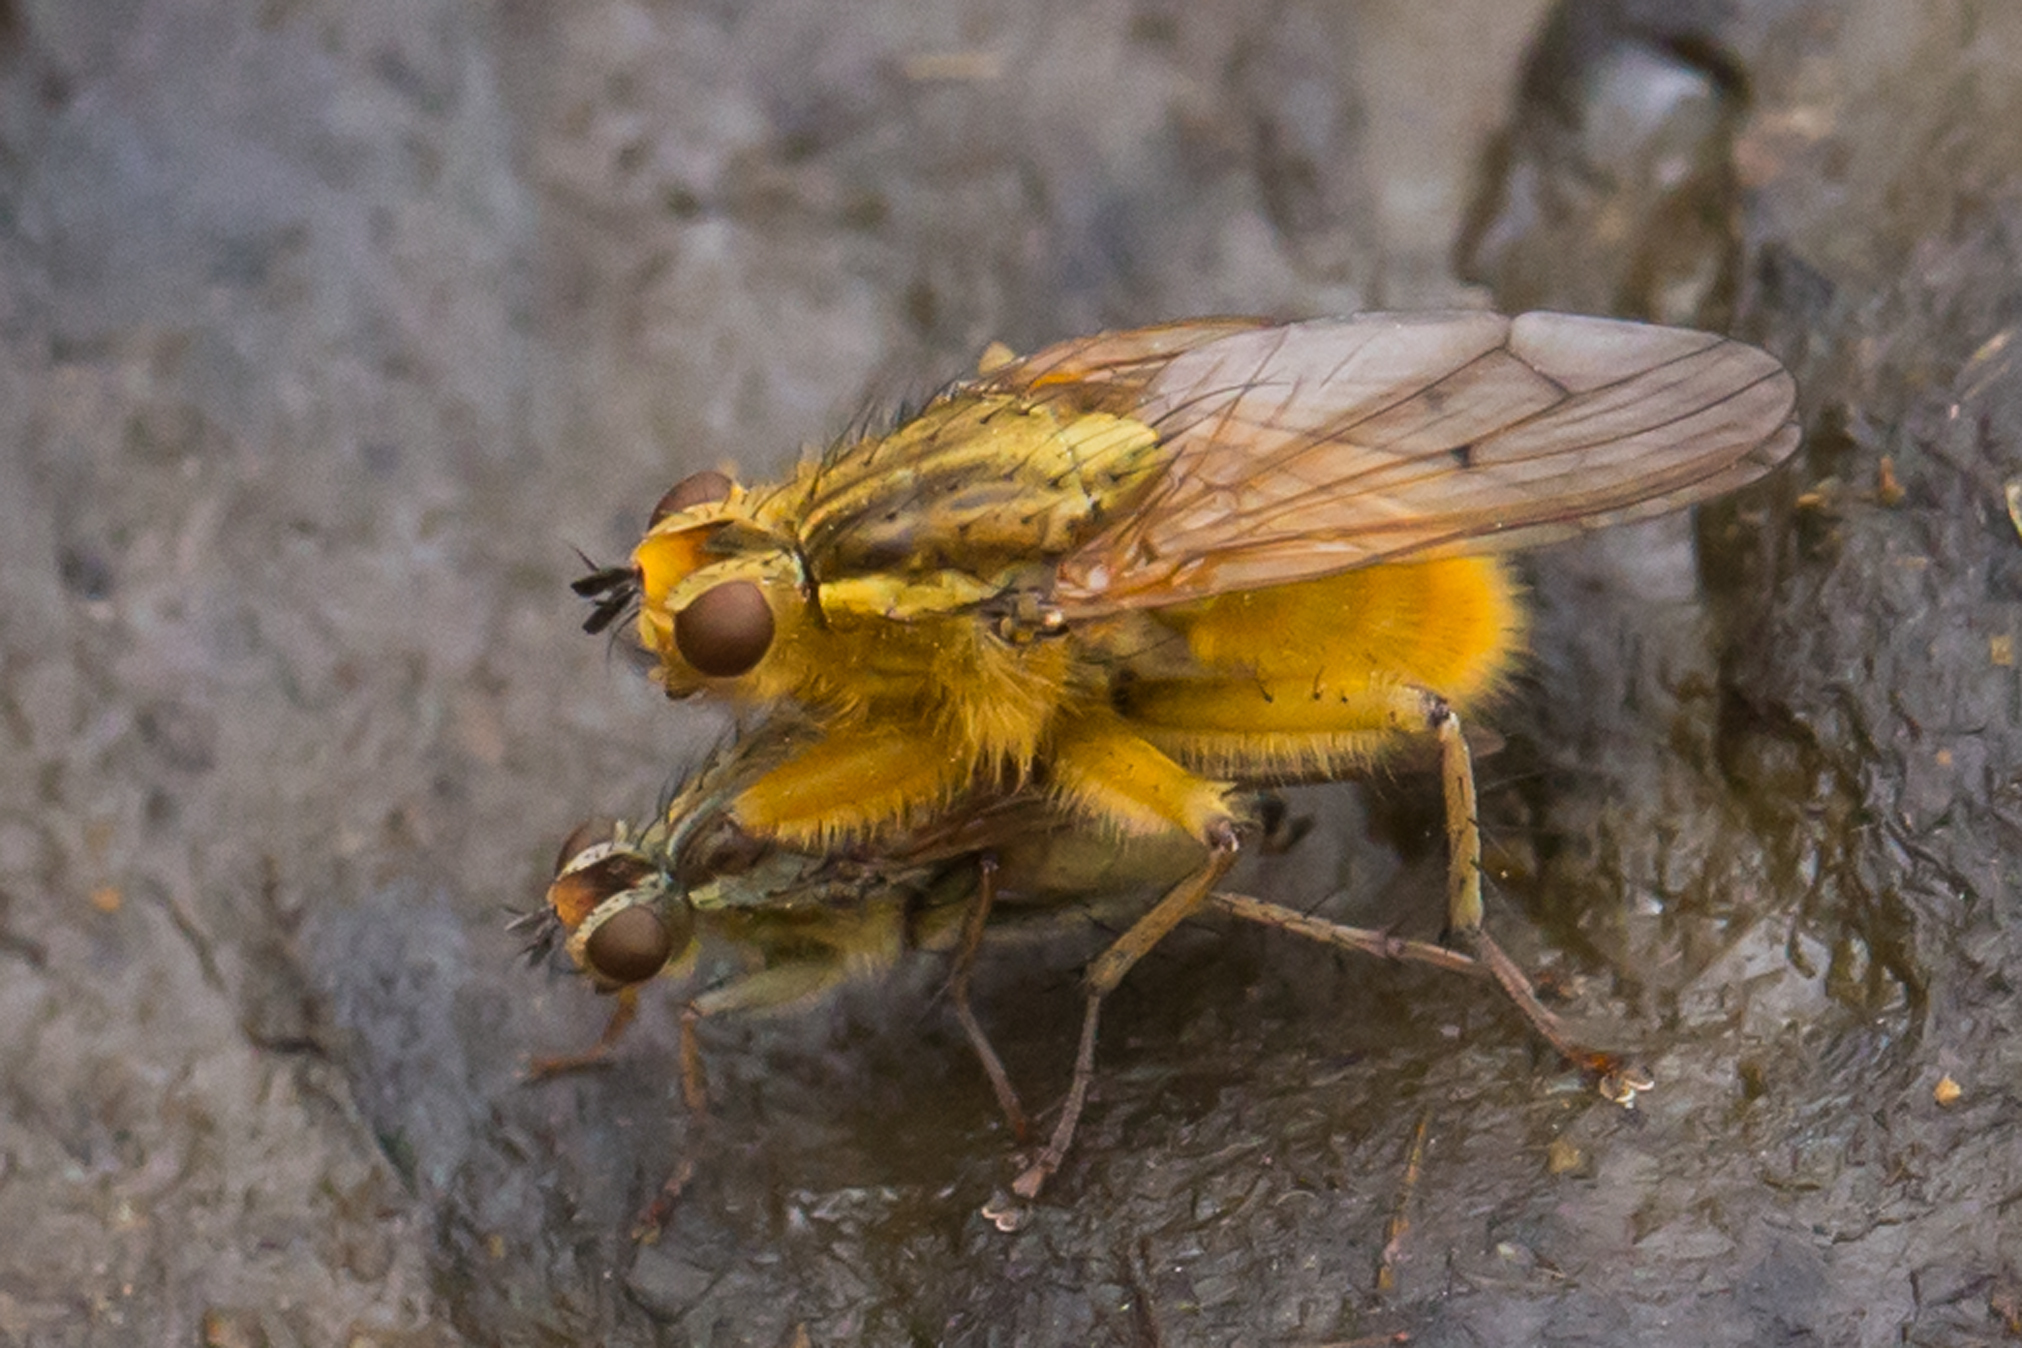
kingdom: Animalia
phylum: Arthropoda
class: Insecta
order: Diptera
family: Scathophagidae
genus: Scathophaga
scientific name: Scathophaga stercoraria
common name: Yellow dung fly
